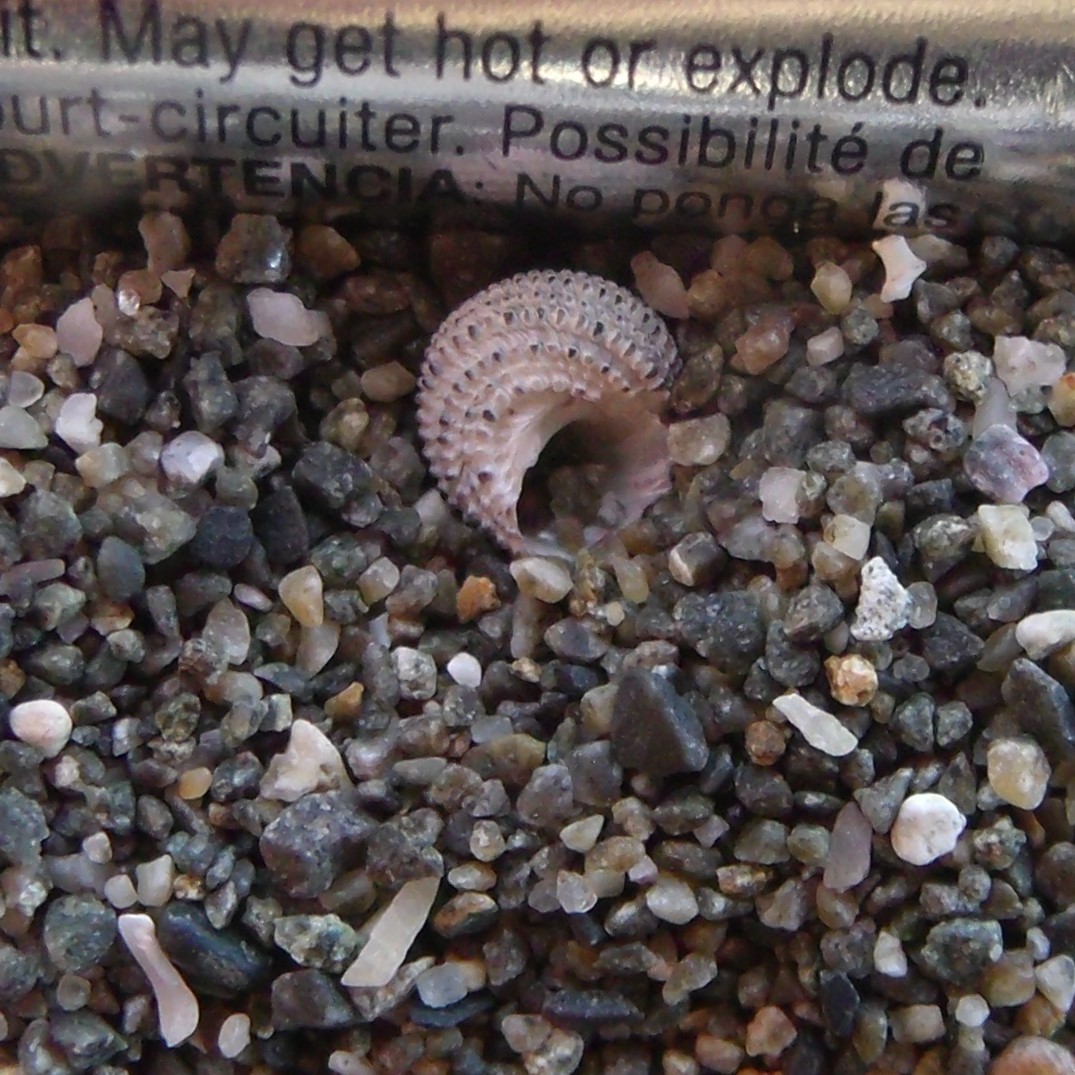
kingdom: Animalia
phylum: Mollusca
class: Gastropoda
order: Seguenziida
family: Chilodontaidae
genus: Herpetopoma
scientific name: Herpetopoma bellum
